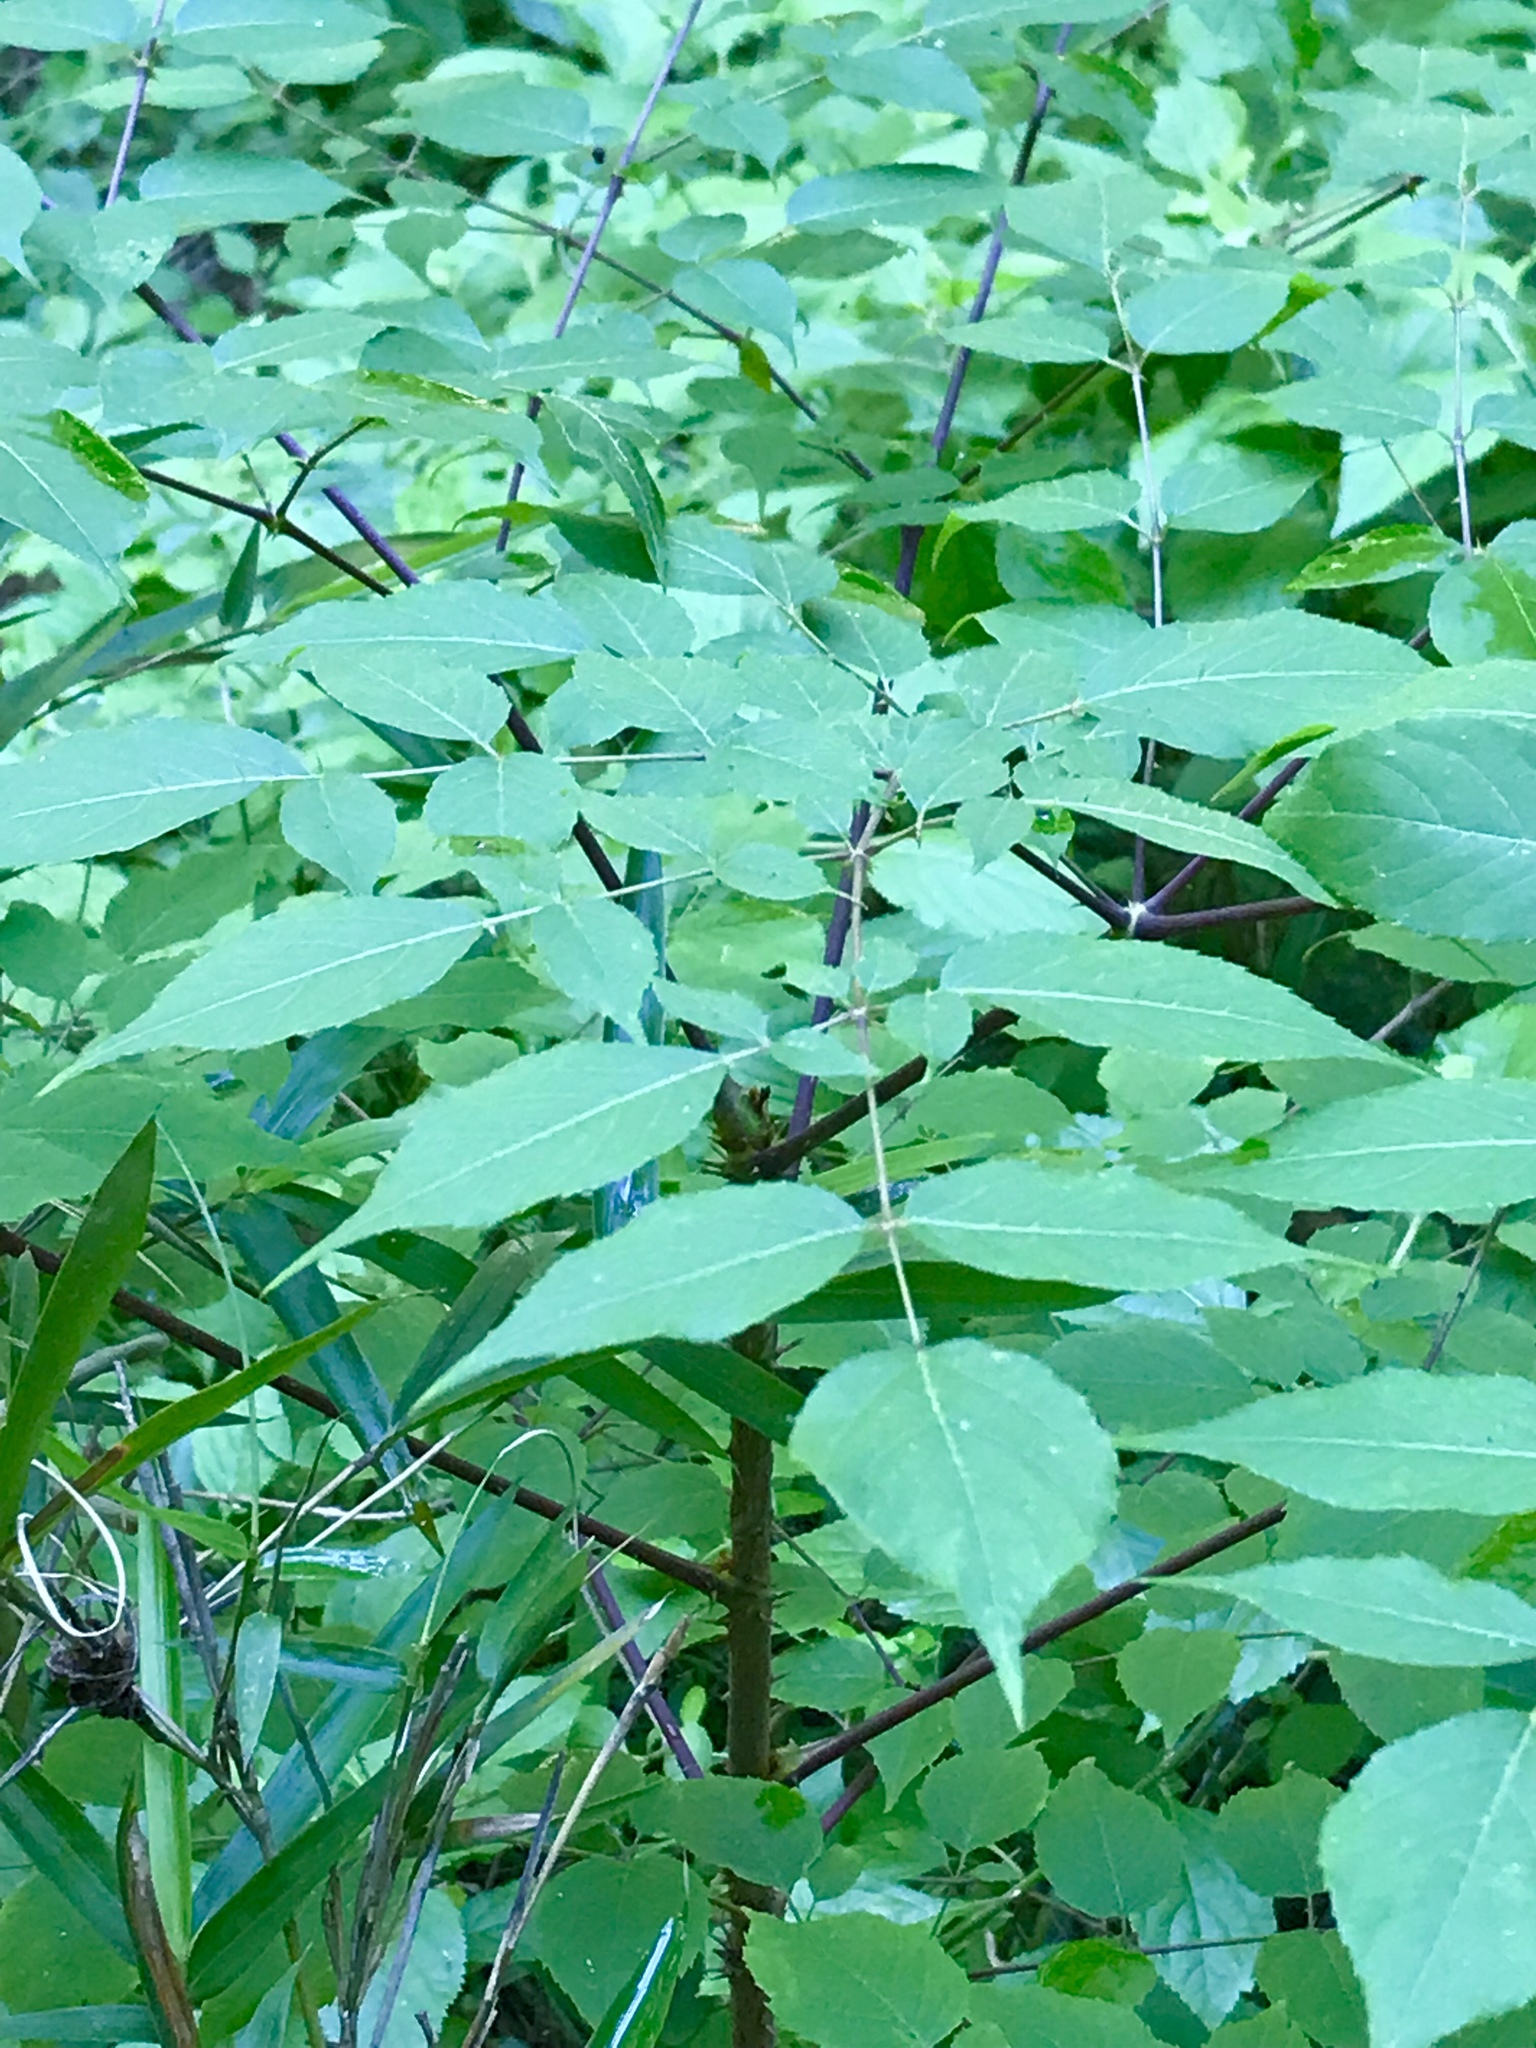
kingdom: Plantae
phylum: Tracheophyta
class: Magnoliopsida
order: Apiales
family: Araliaceae
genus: Aralia
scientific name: Aralia spinosa
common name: Hercules'-club
